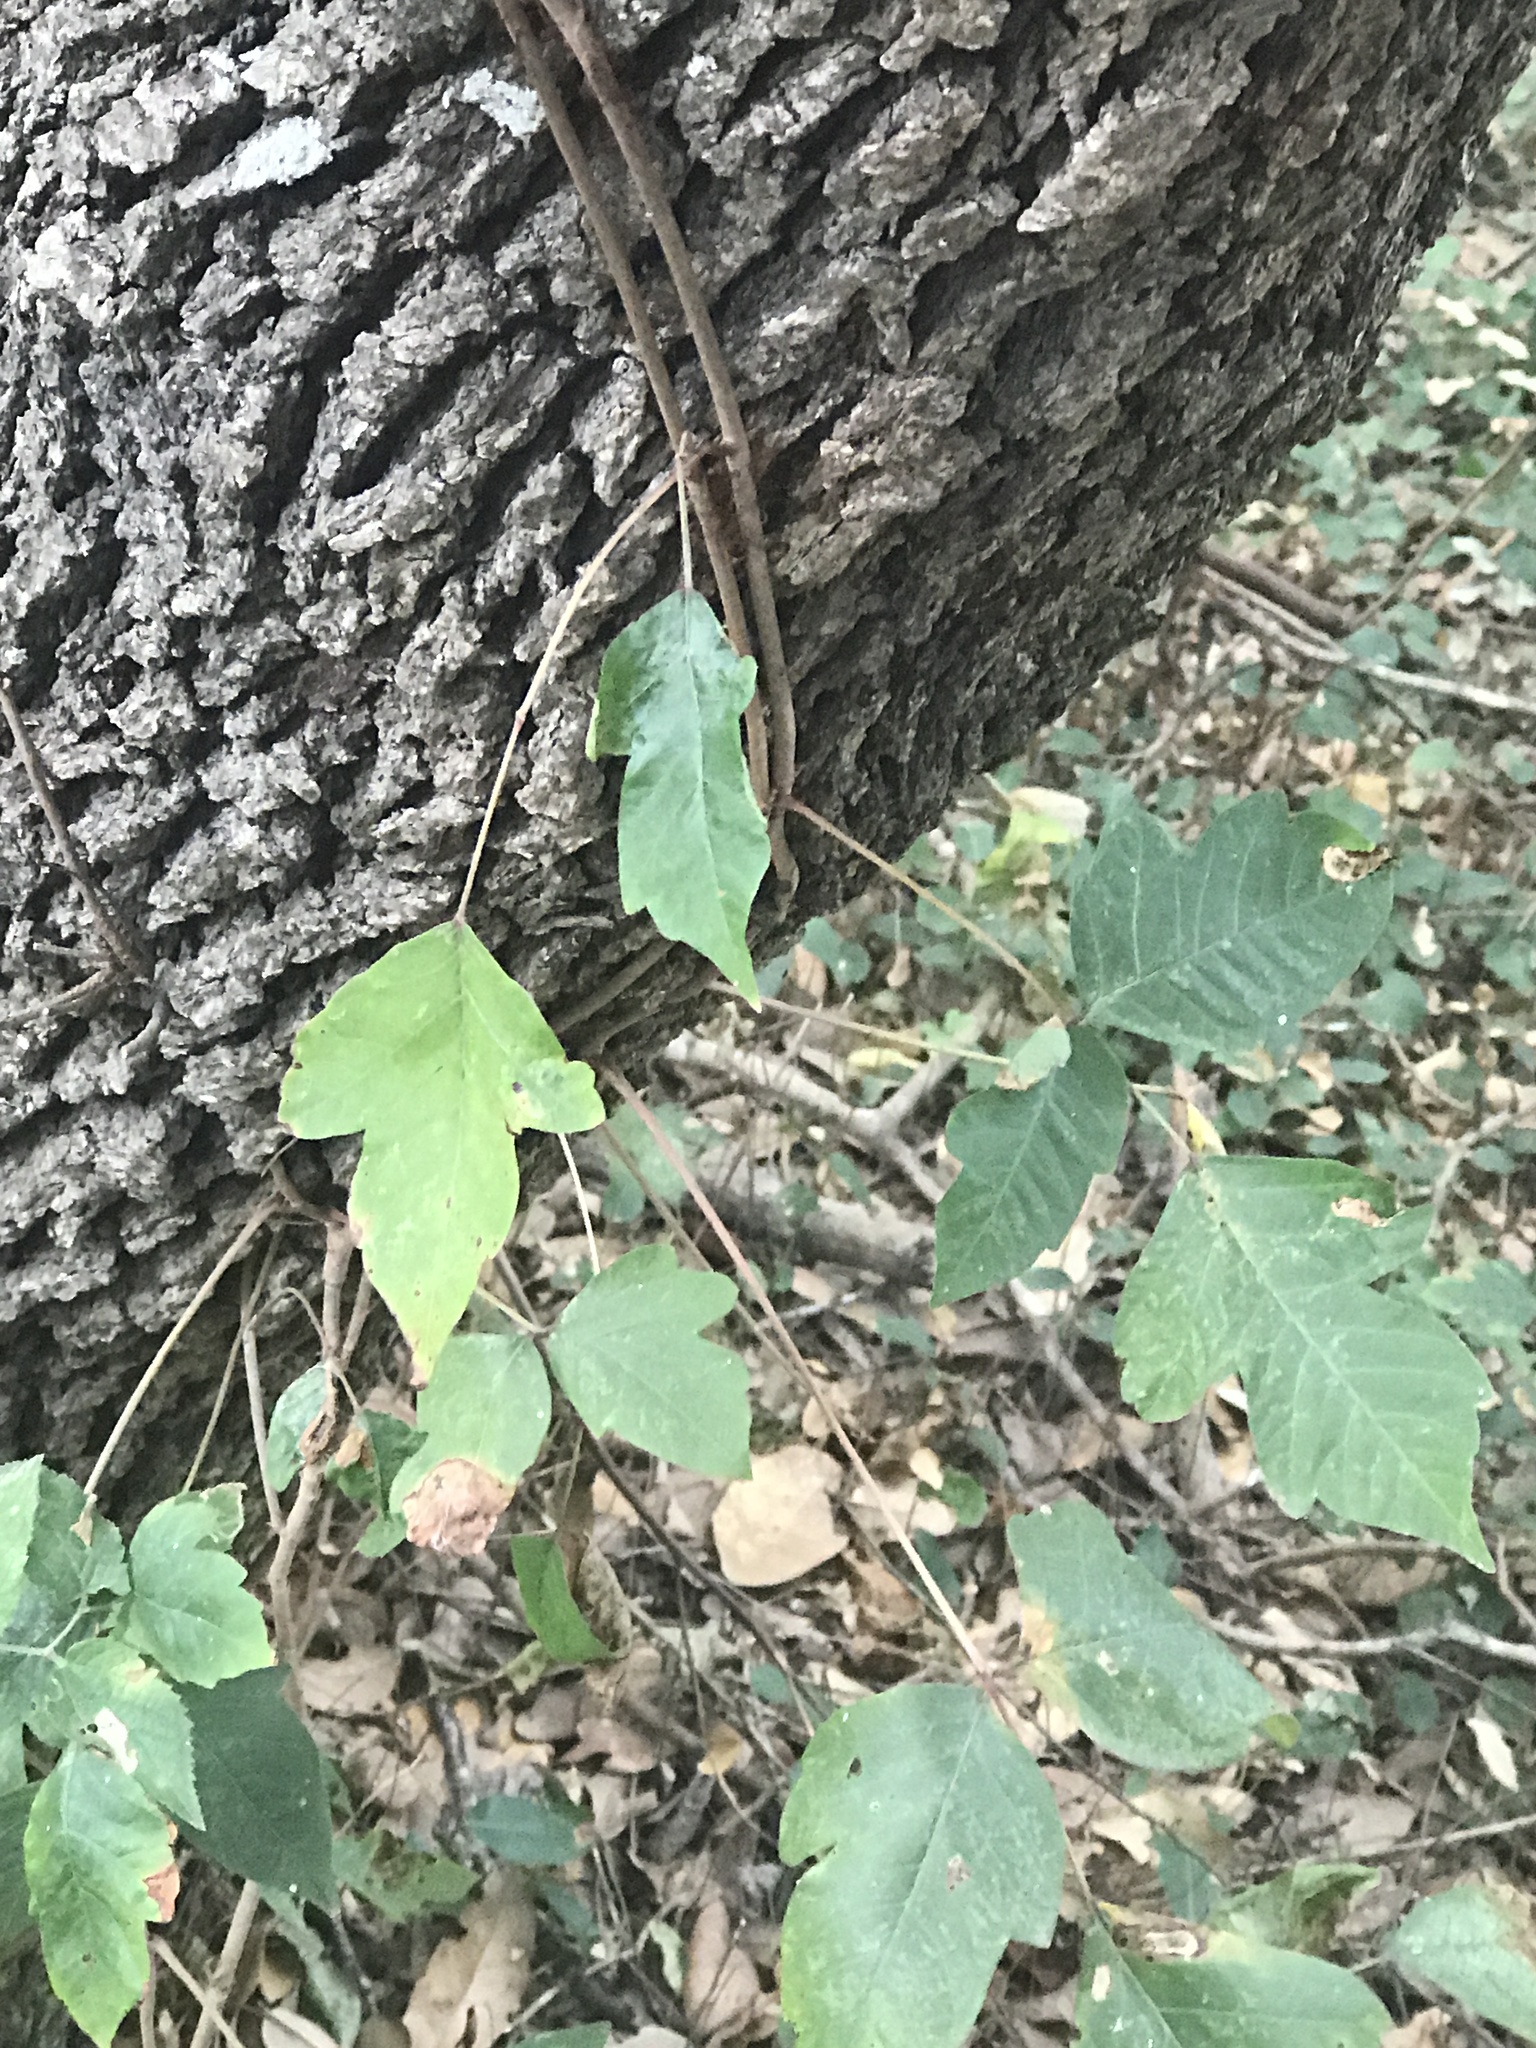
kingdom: Plantae
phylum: Tracheophyta
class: Magnoliopsida
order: Sapindales
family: Anacardiaceae
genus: Toxicodendron
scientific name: Toxicodendron radicans
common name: Poison ivy
